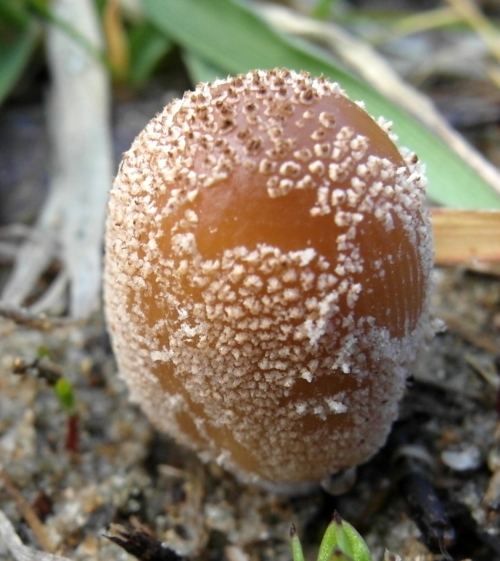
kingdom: Fungi
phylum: Basidiomycota
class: Agaricomycetes
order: Agaricales
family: Psathyrellaceae
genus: Coprinellus
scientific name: Coprinellus micaceus
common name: Glistening ink-cap
